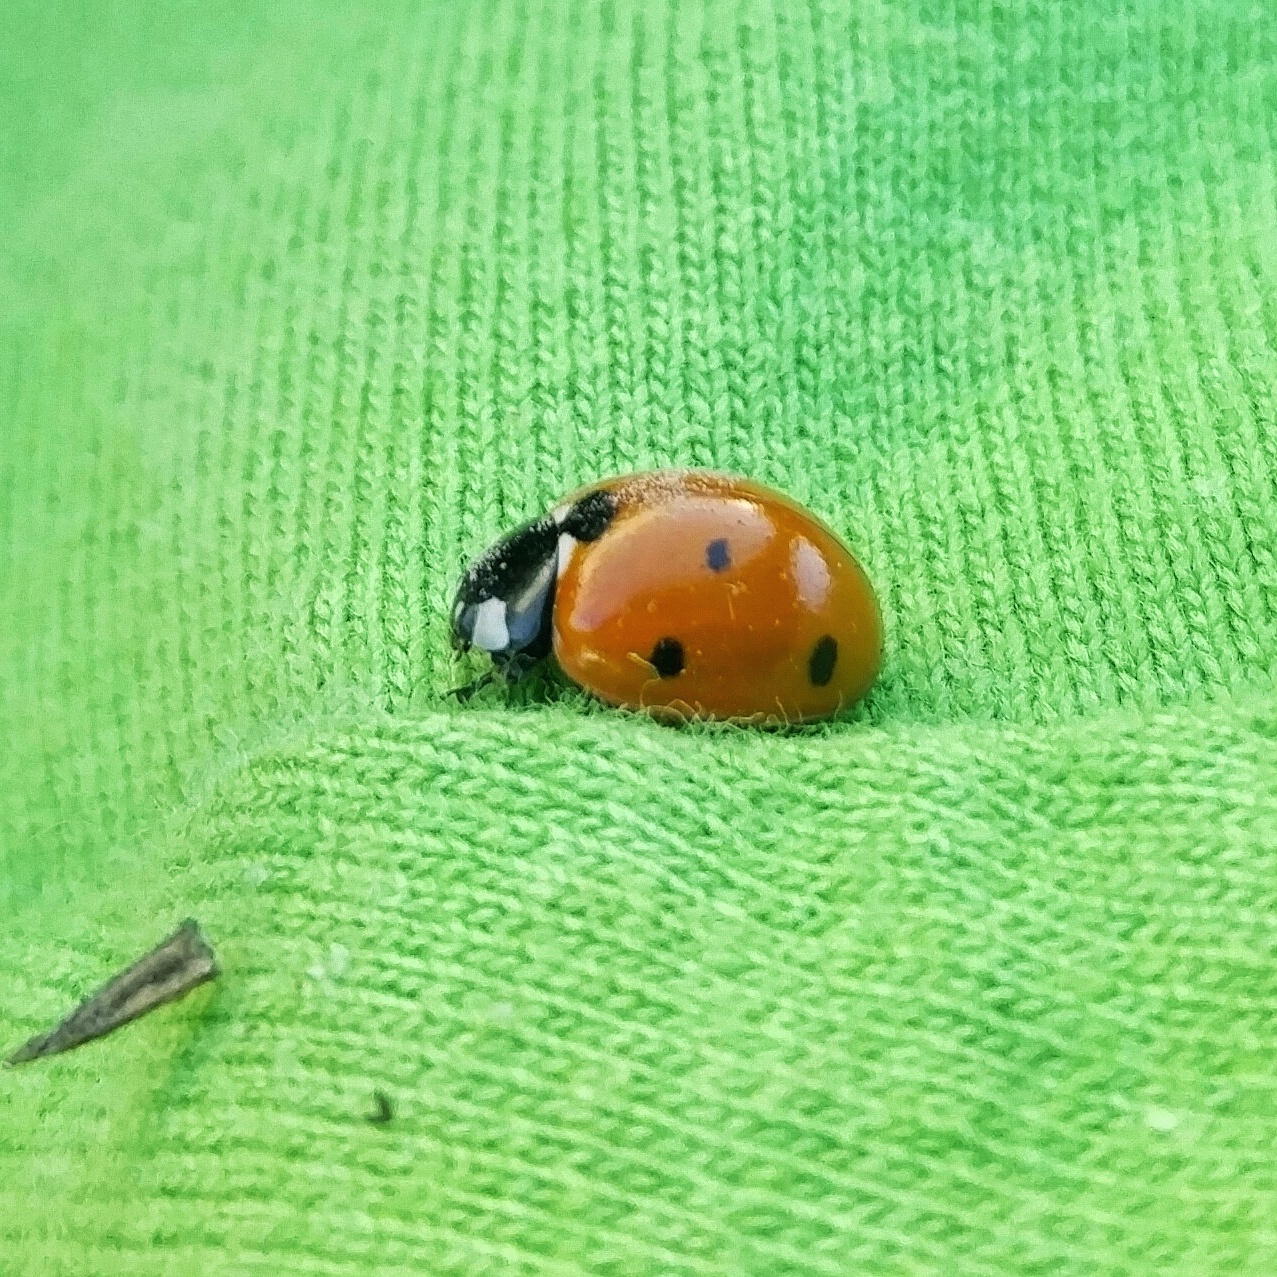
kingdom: Animalia
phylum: Arthropoda
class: Insecta
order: Coleoptera
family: Coccinellidae
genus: Coccinella
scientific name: Coccinella septempunctata
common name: Sevenspotted lady beetle
